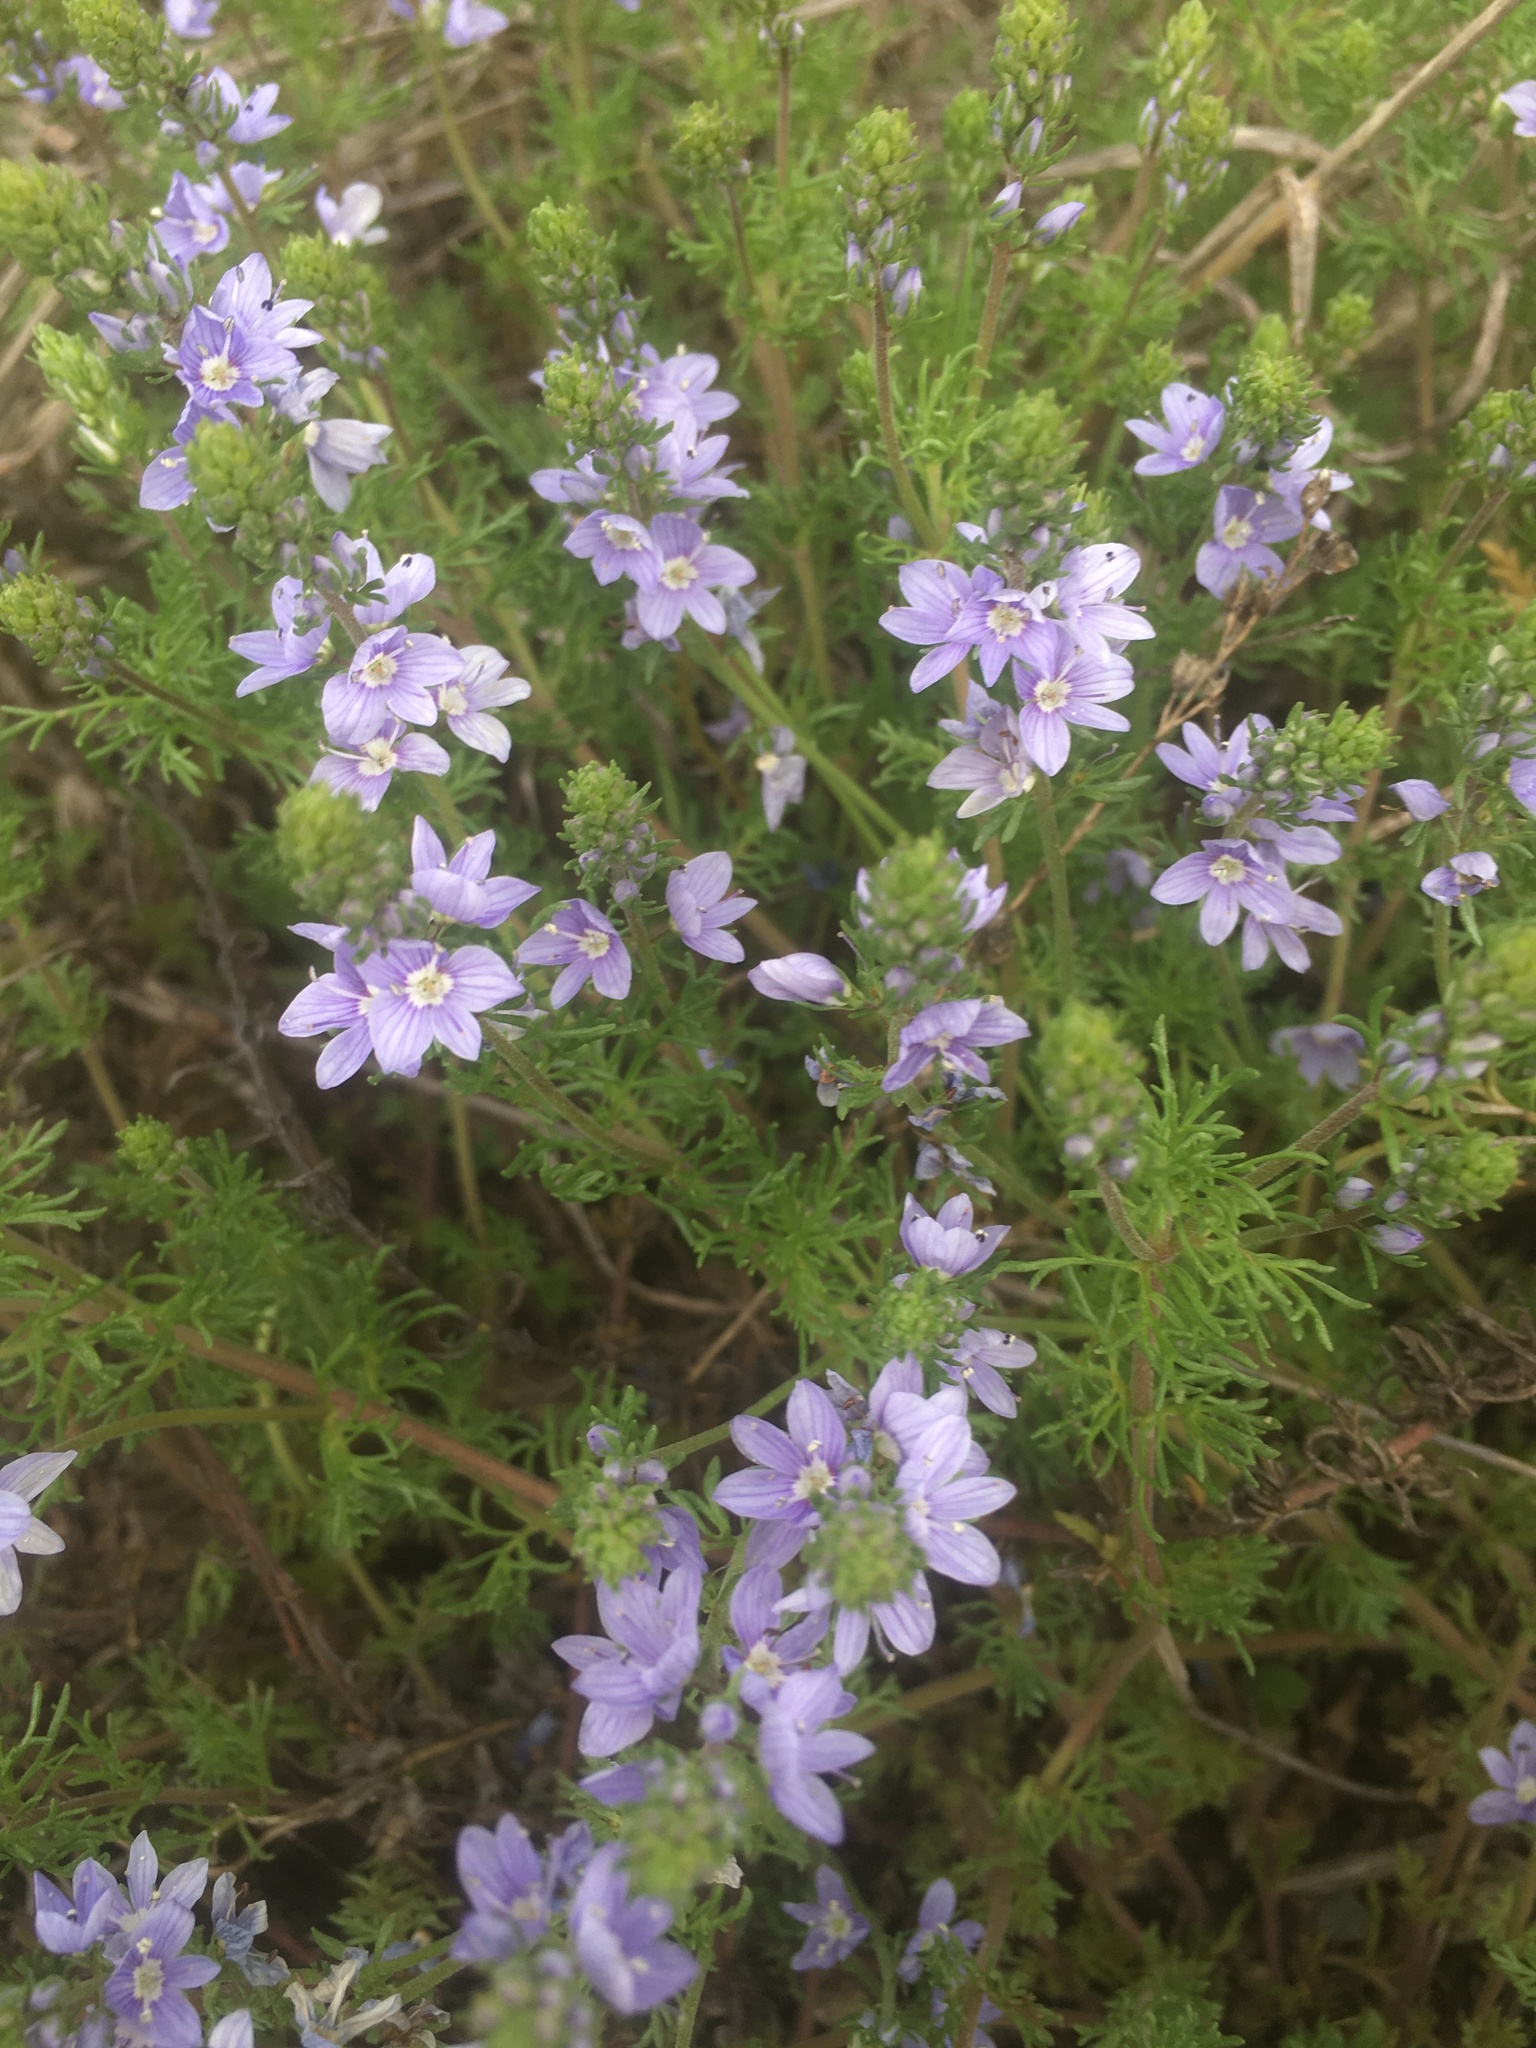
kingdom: Plantae
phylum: Tracheophyta
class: Magnoliopsida
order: Lamiales
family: Plantaginaceae
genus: Veronica
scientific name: Veronica austriaca
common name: Large speedwell
